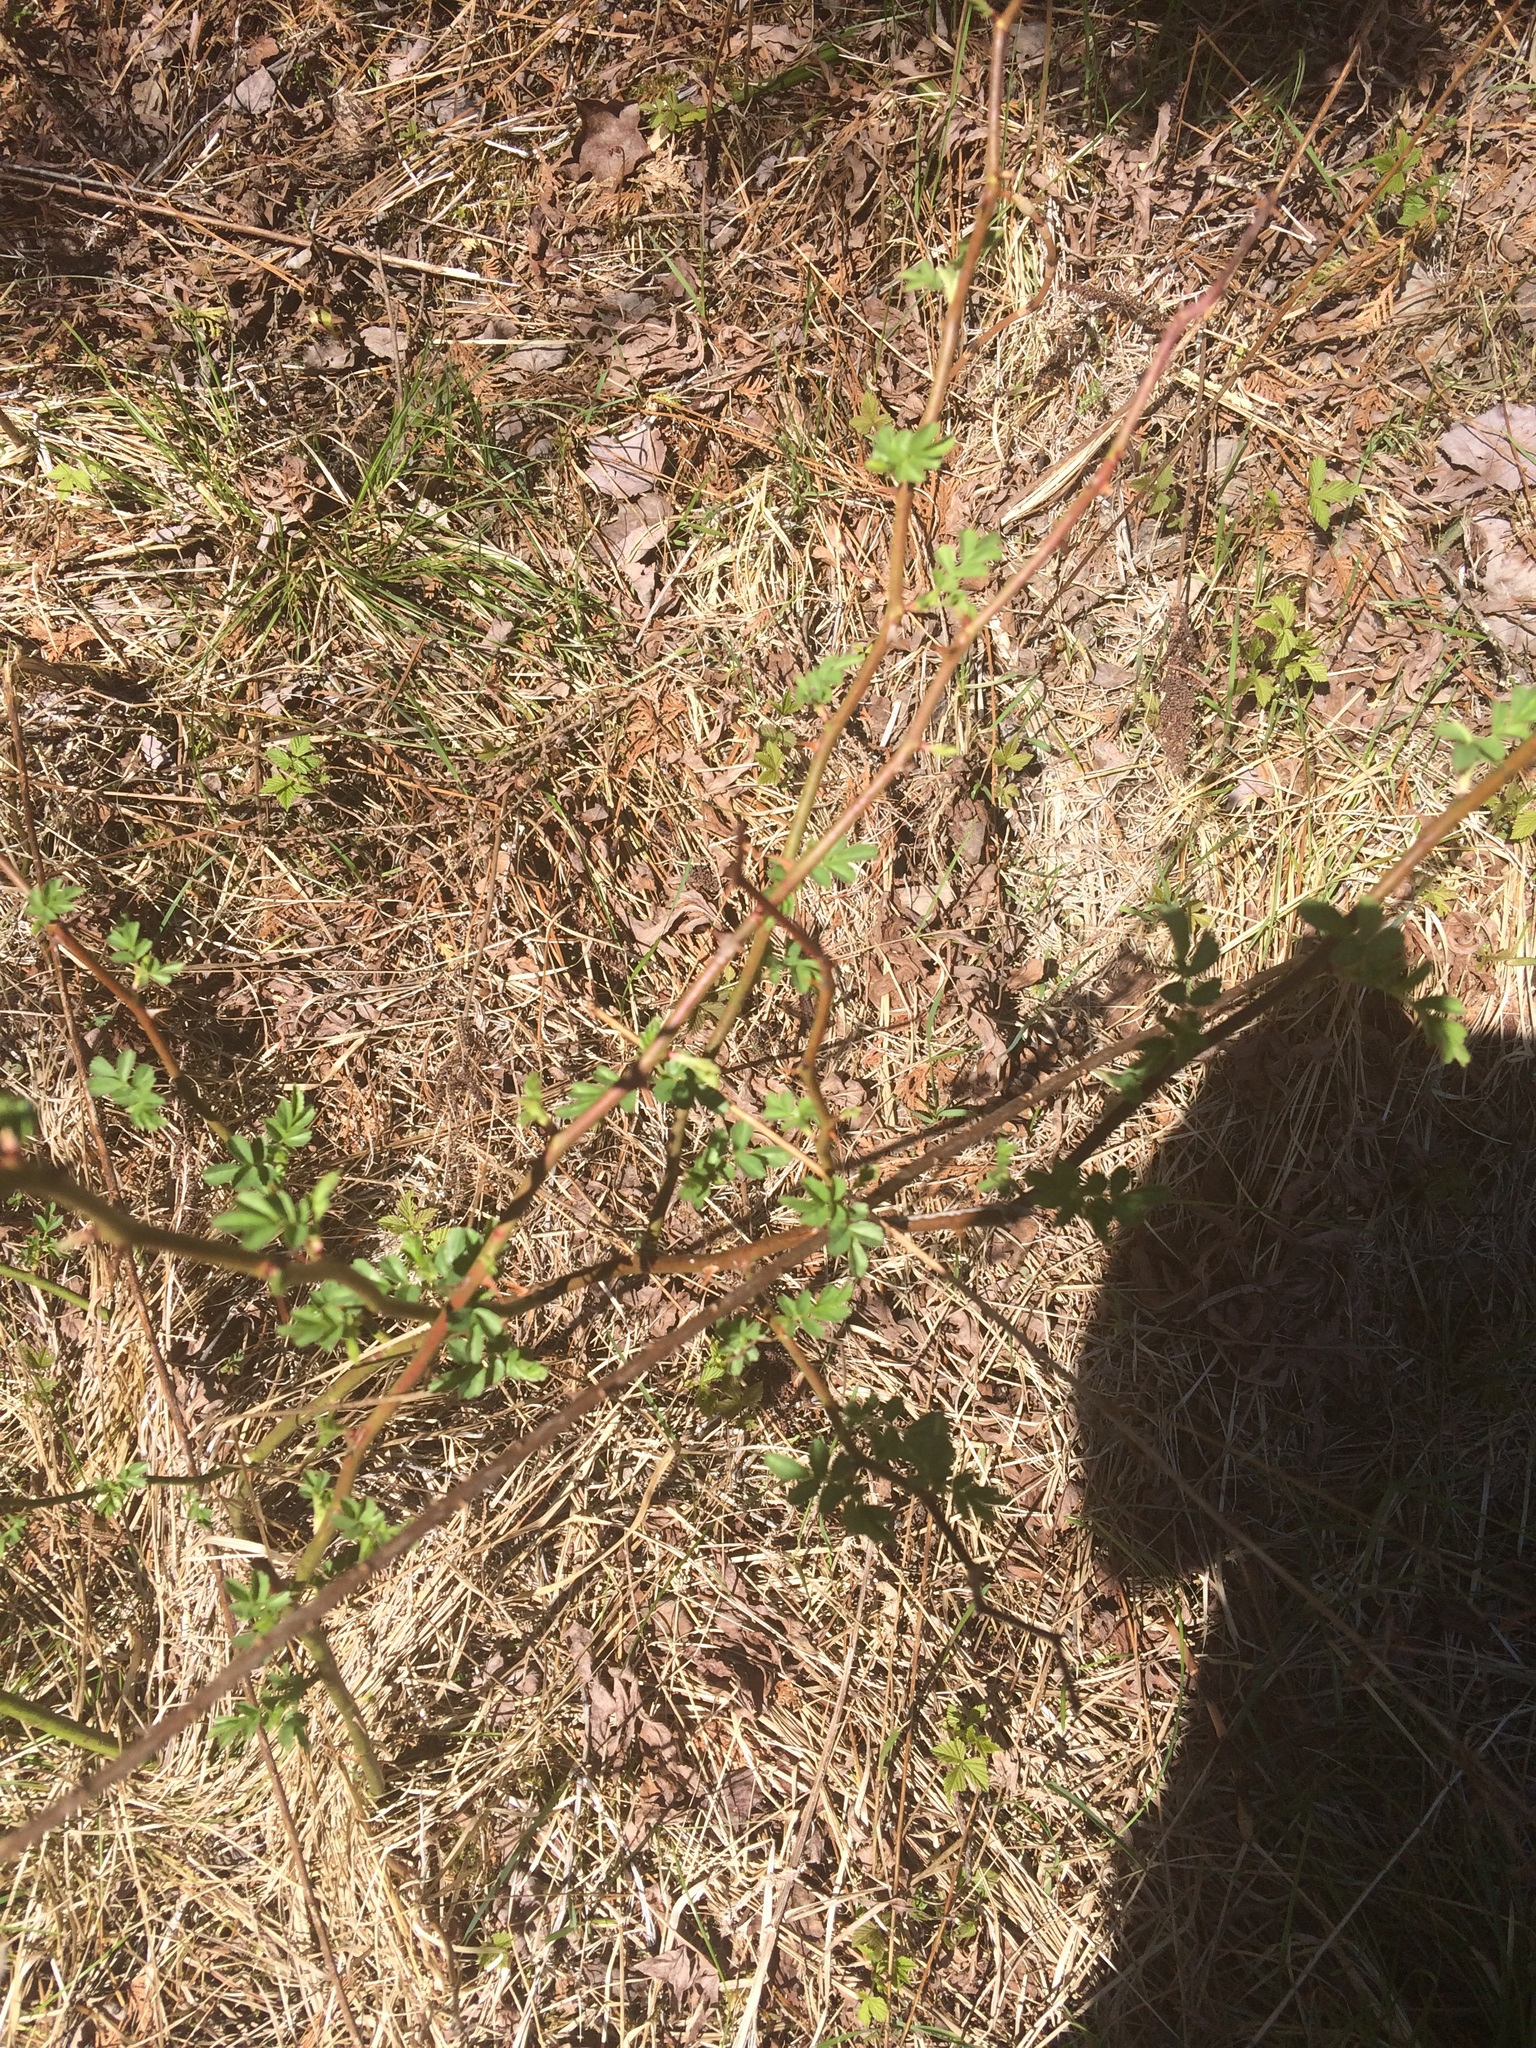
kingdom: Plantae
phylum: Tracheophyta
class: Magnoliopsida
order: Rosales
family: Rosaceae
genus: Rosa
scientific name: Rosa multiflora
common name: Multiflora rose
